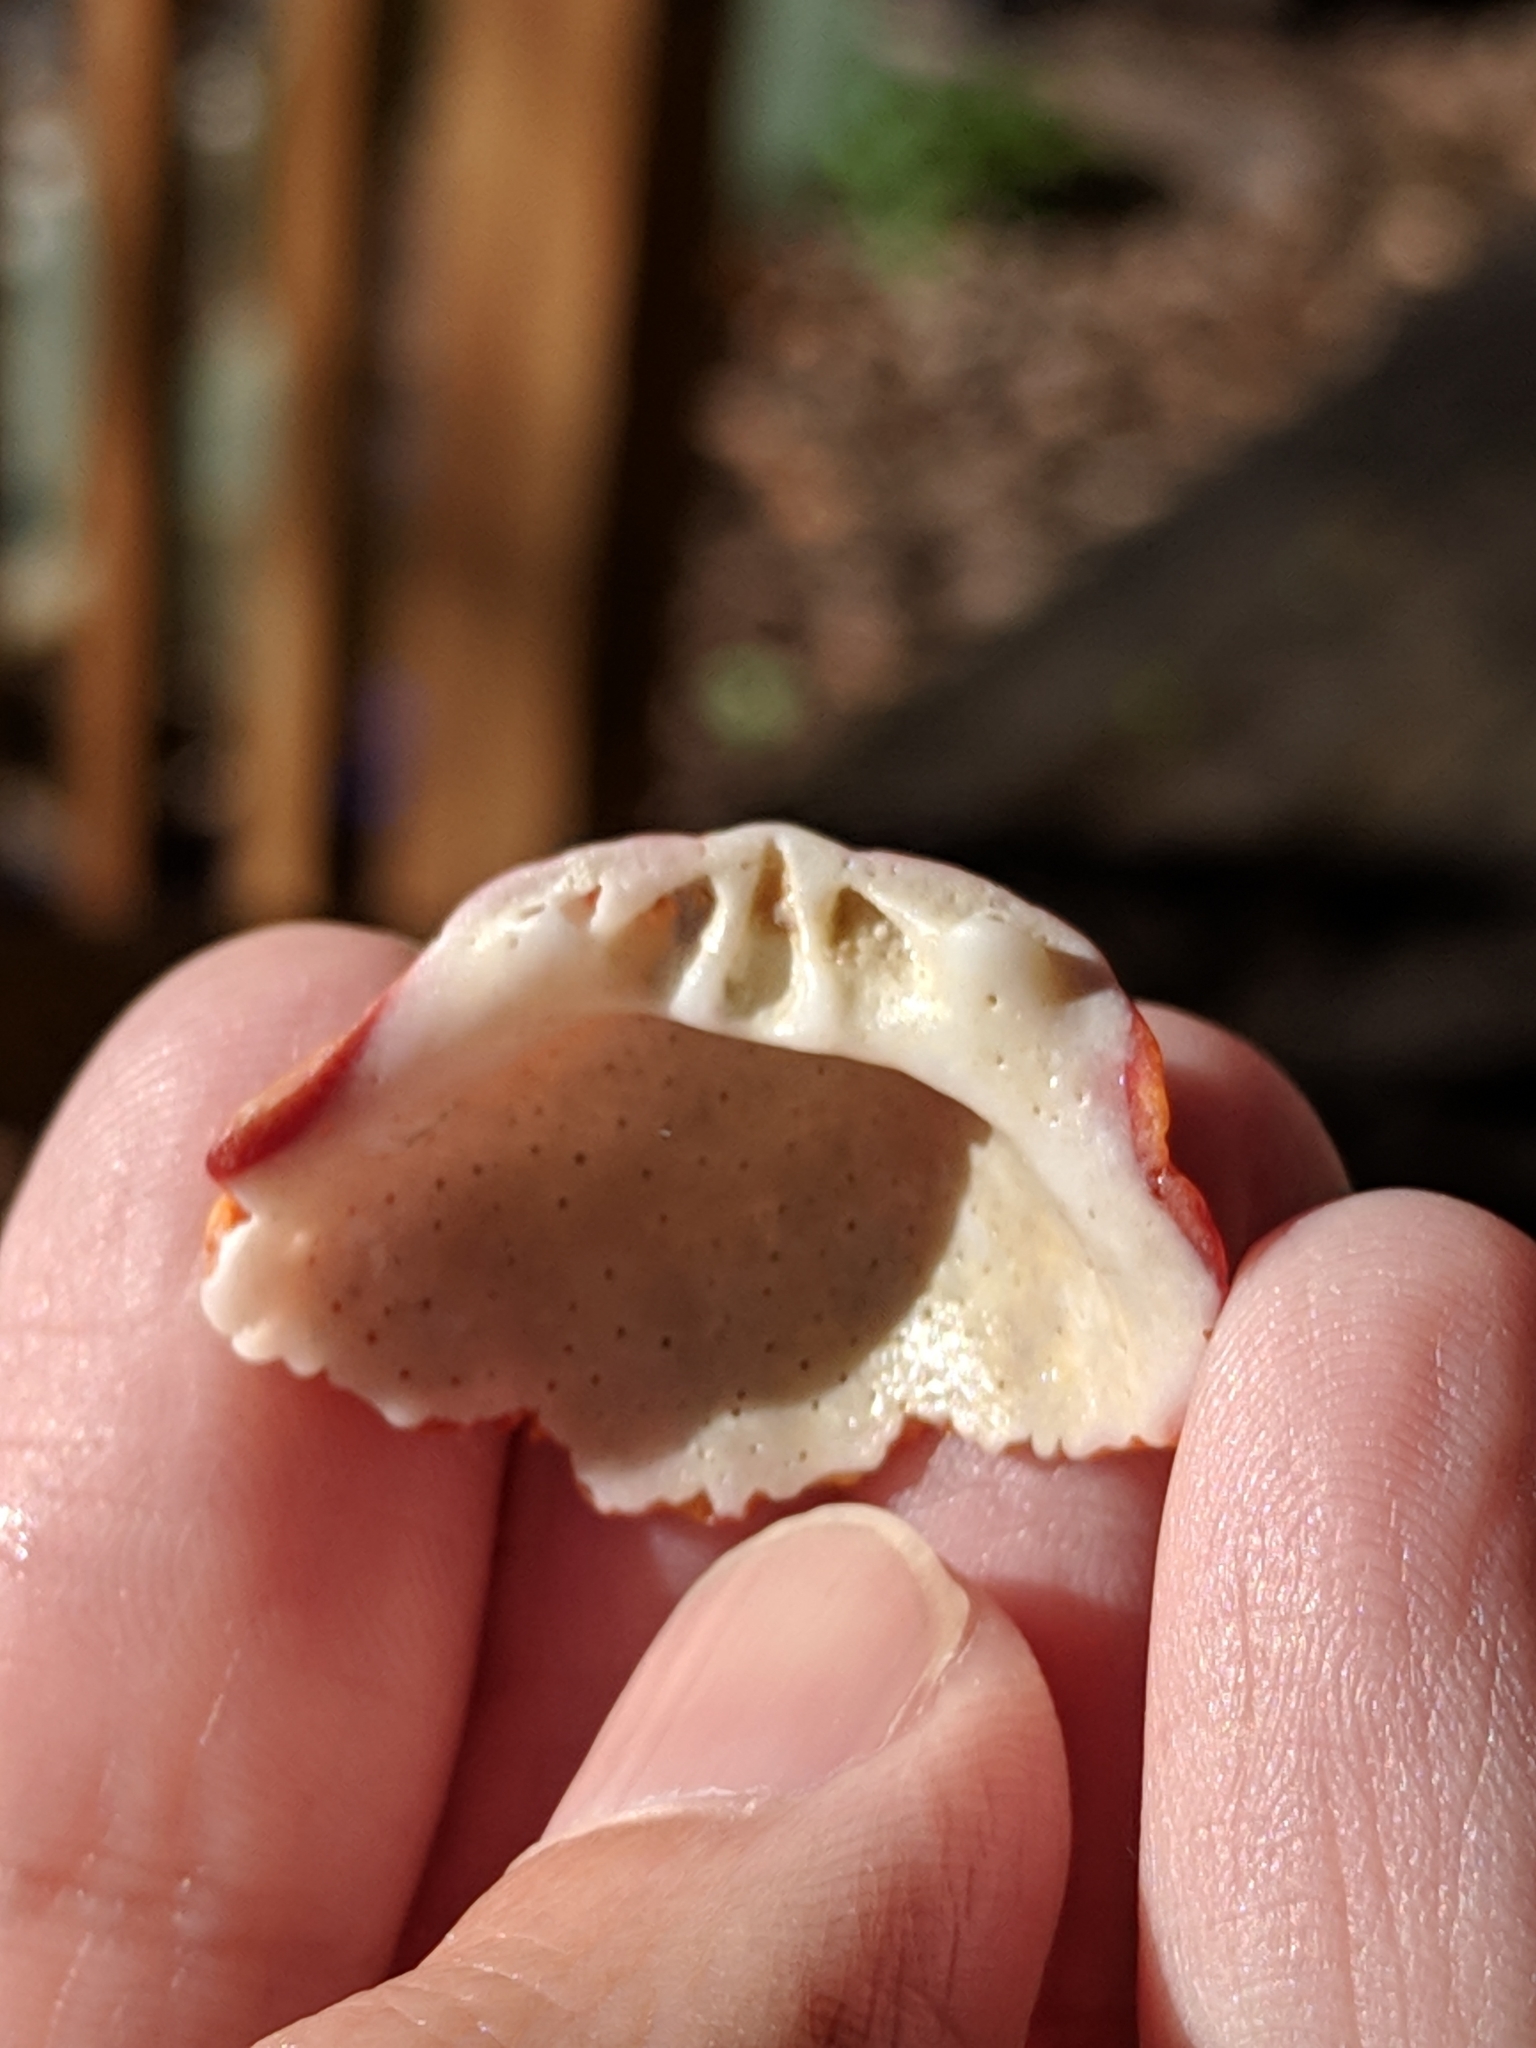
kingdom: Animalia
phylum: Mollusca
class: Bivalvia
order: Pectinida
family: Spondylidae
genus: Spondylus
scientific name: Spondylus tenuis
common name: Digitate thorny oyster
